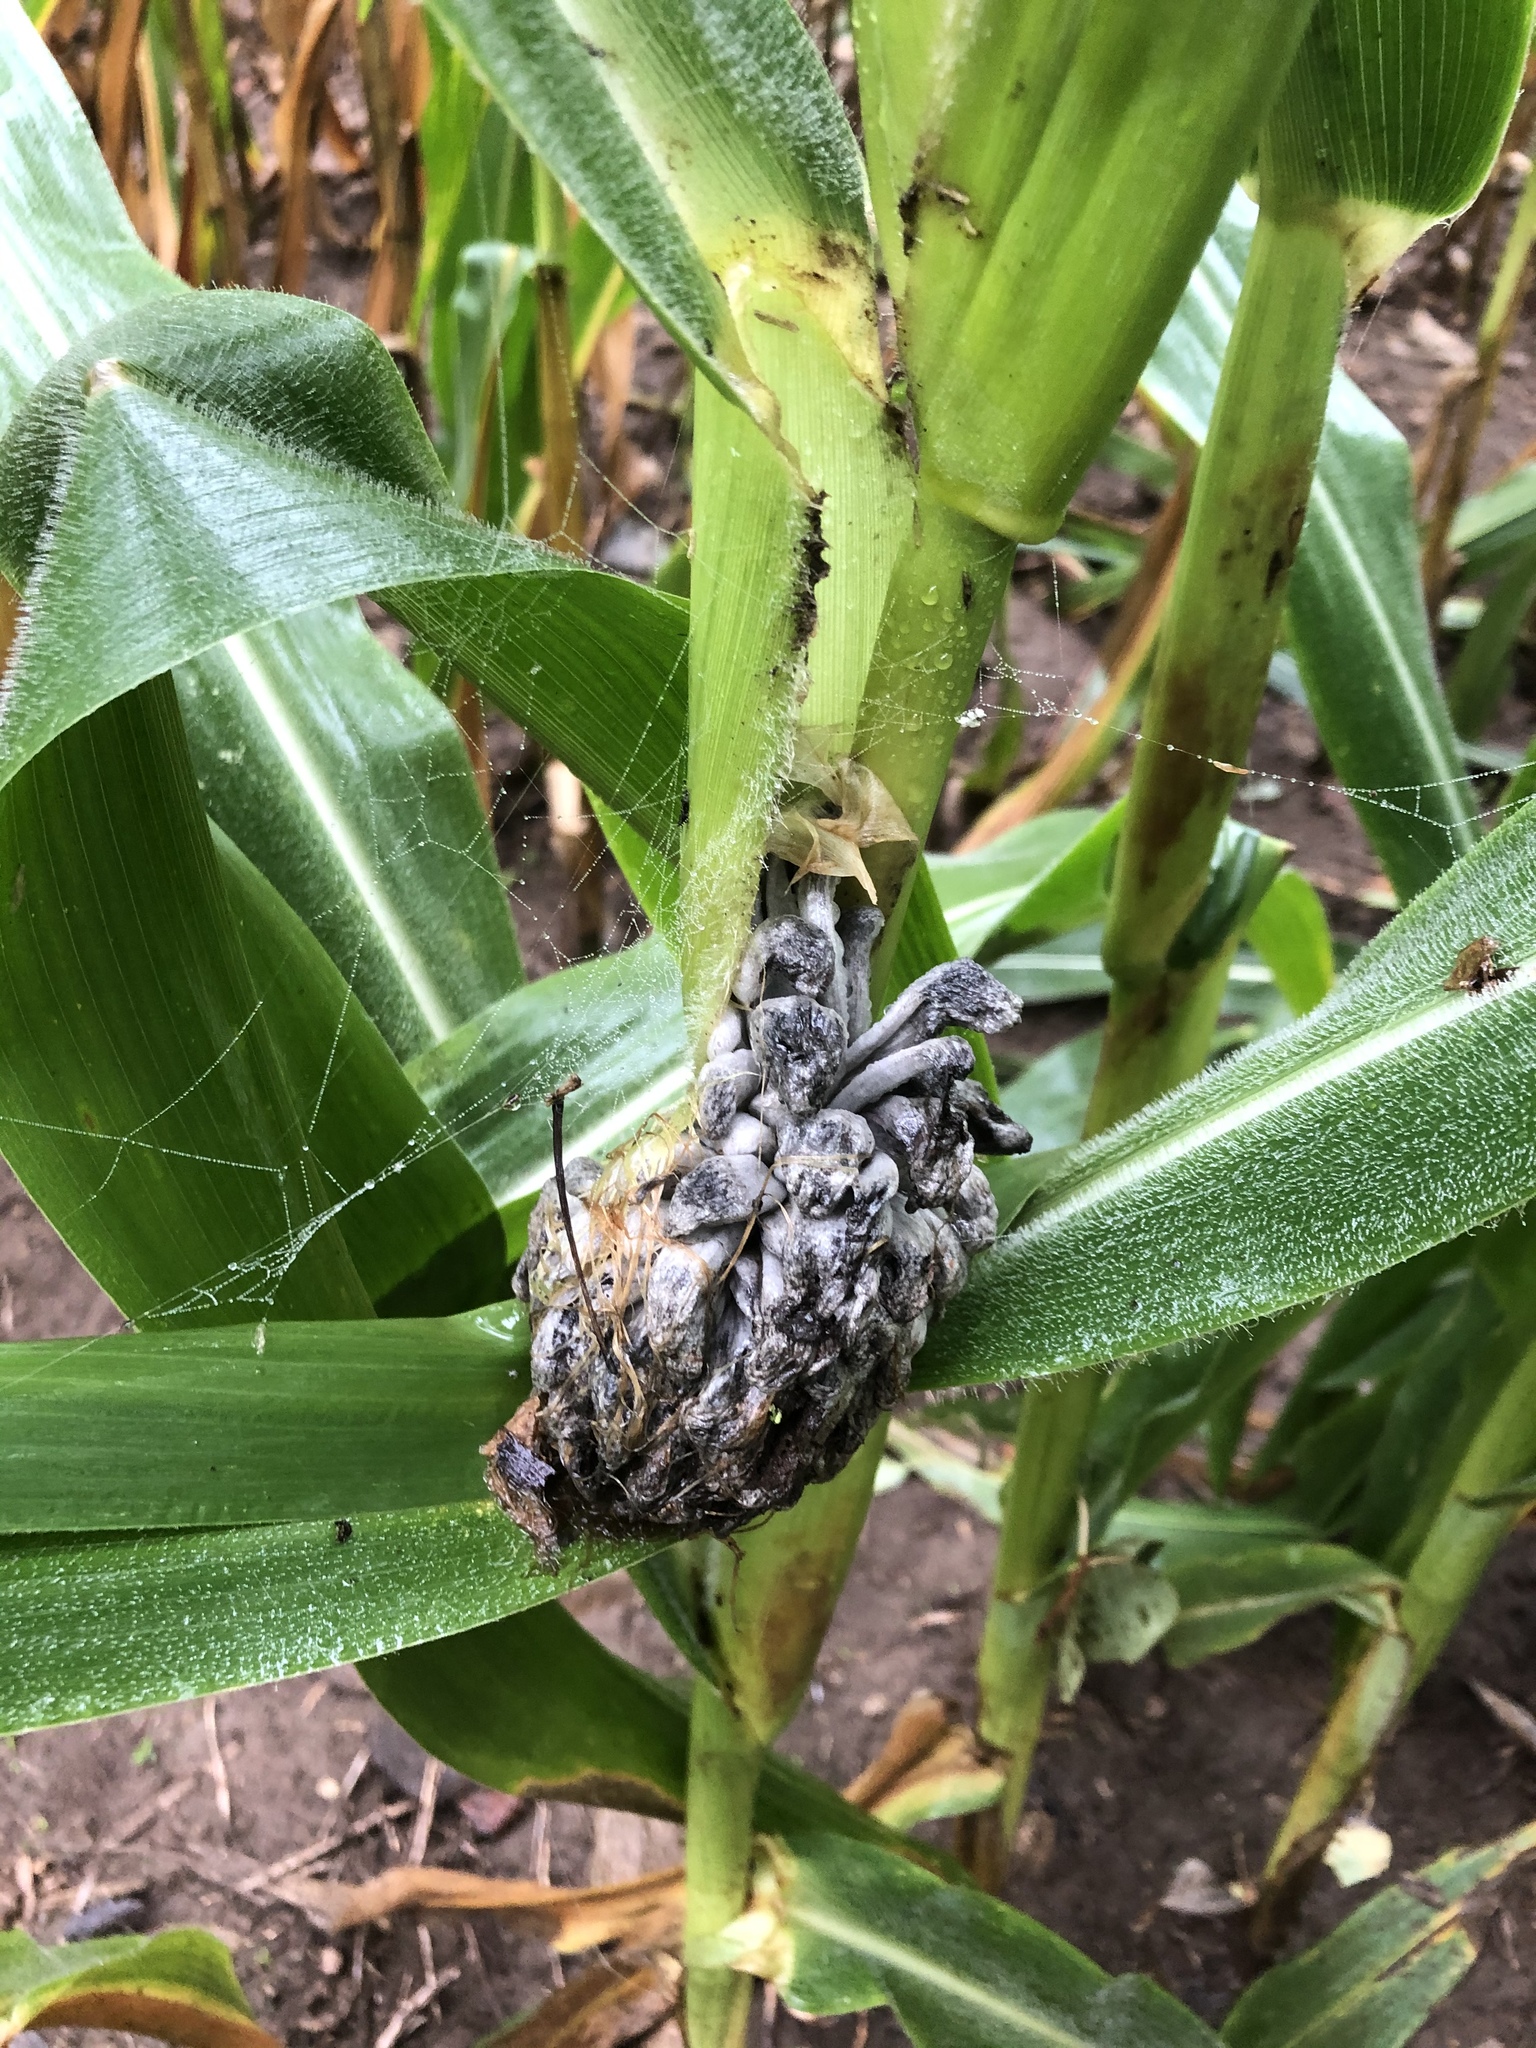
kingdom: Fungi
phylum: Basidiomycota
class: Ustilaginomycetes
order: Ustilaginales
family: Ustilaginaceae
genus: Mycosarcoma
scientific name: Mycosarcoma maydis
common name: Corn smut
